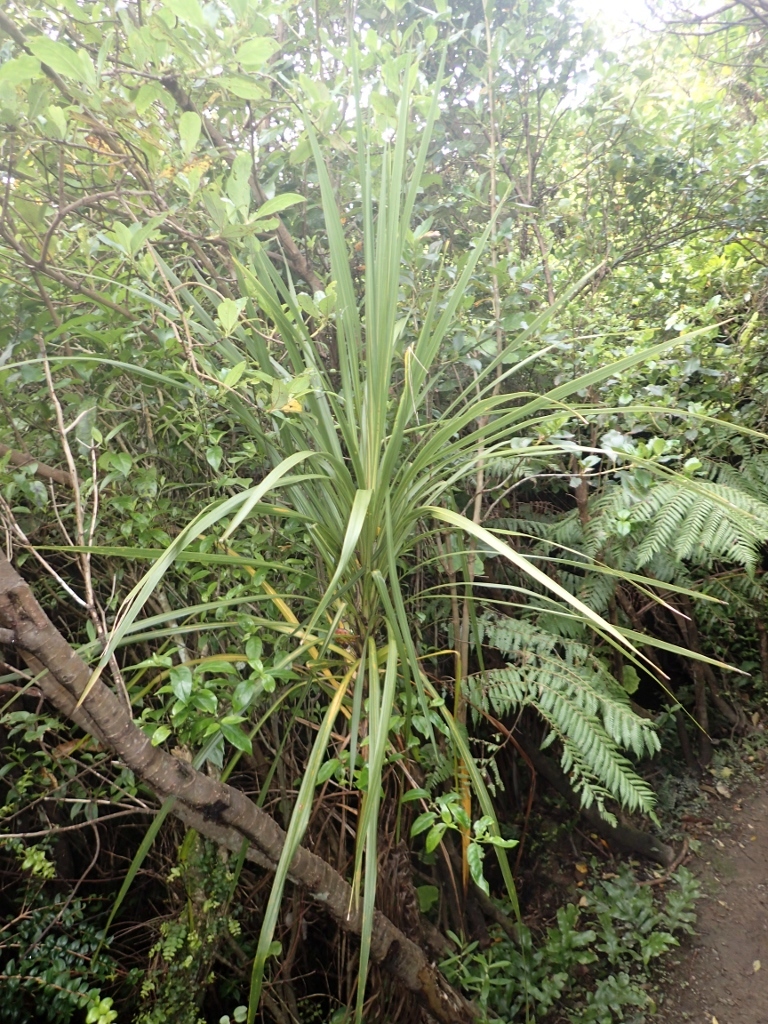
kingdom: Plantae
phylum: Tracheophyta
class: Liliopsida
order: Asparagales
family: Asparagaceae
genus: Cordyline
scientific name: Cordyline australis
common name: Cabbage-palm
